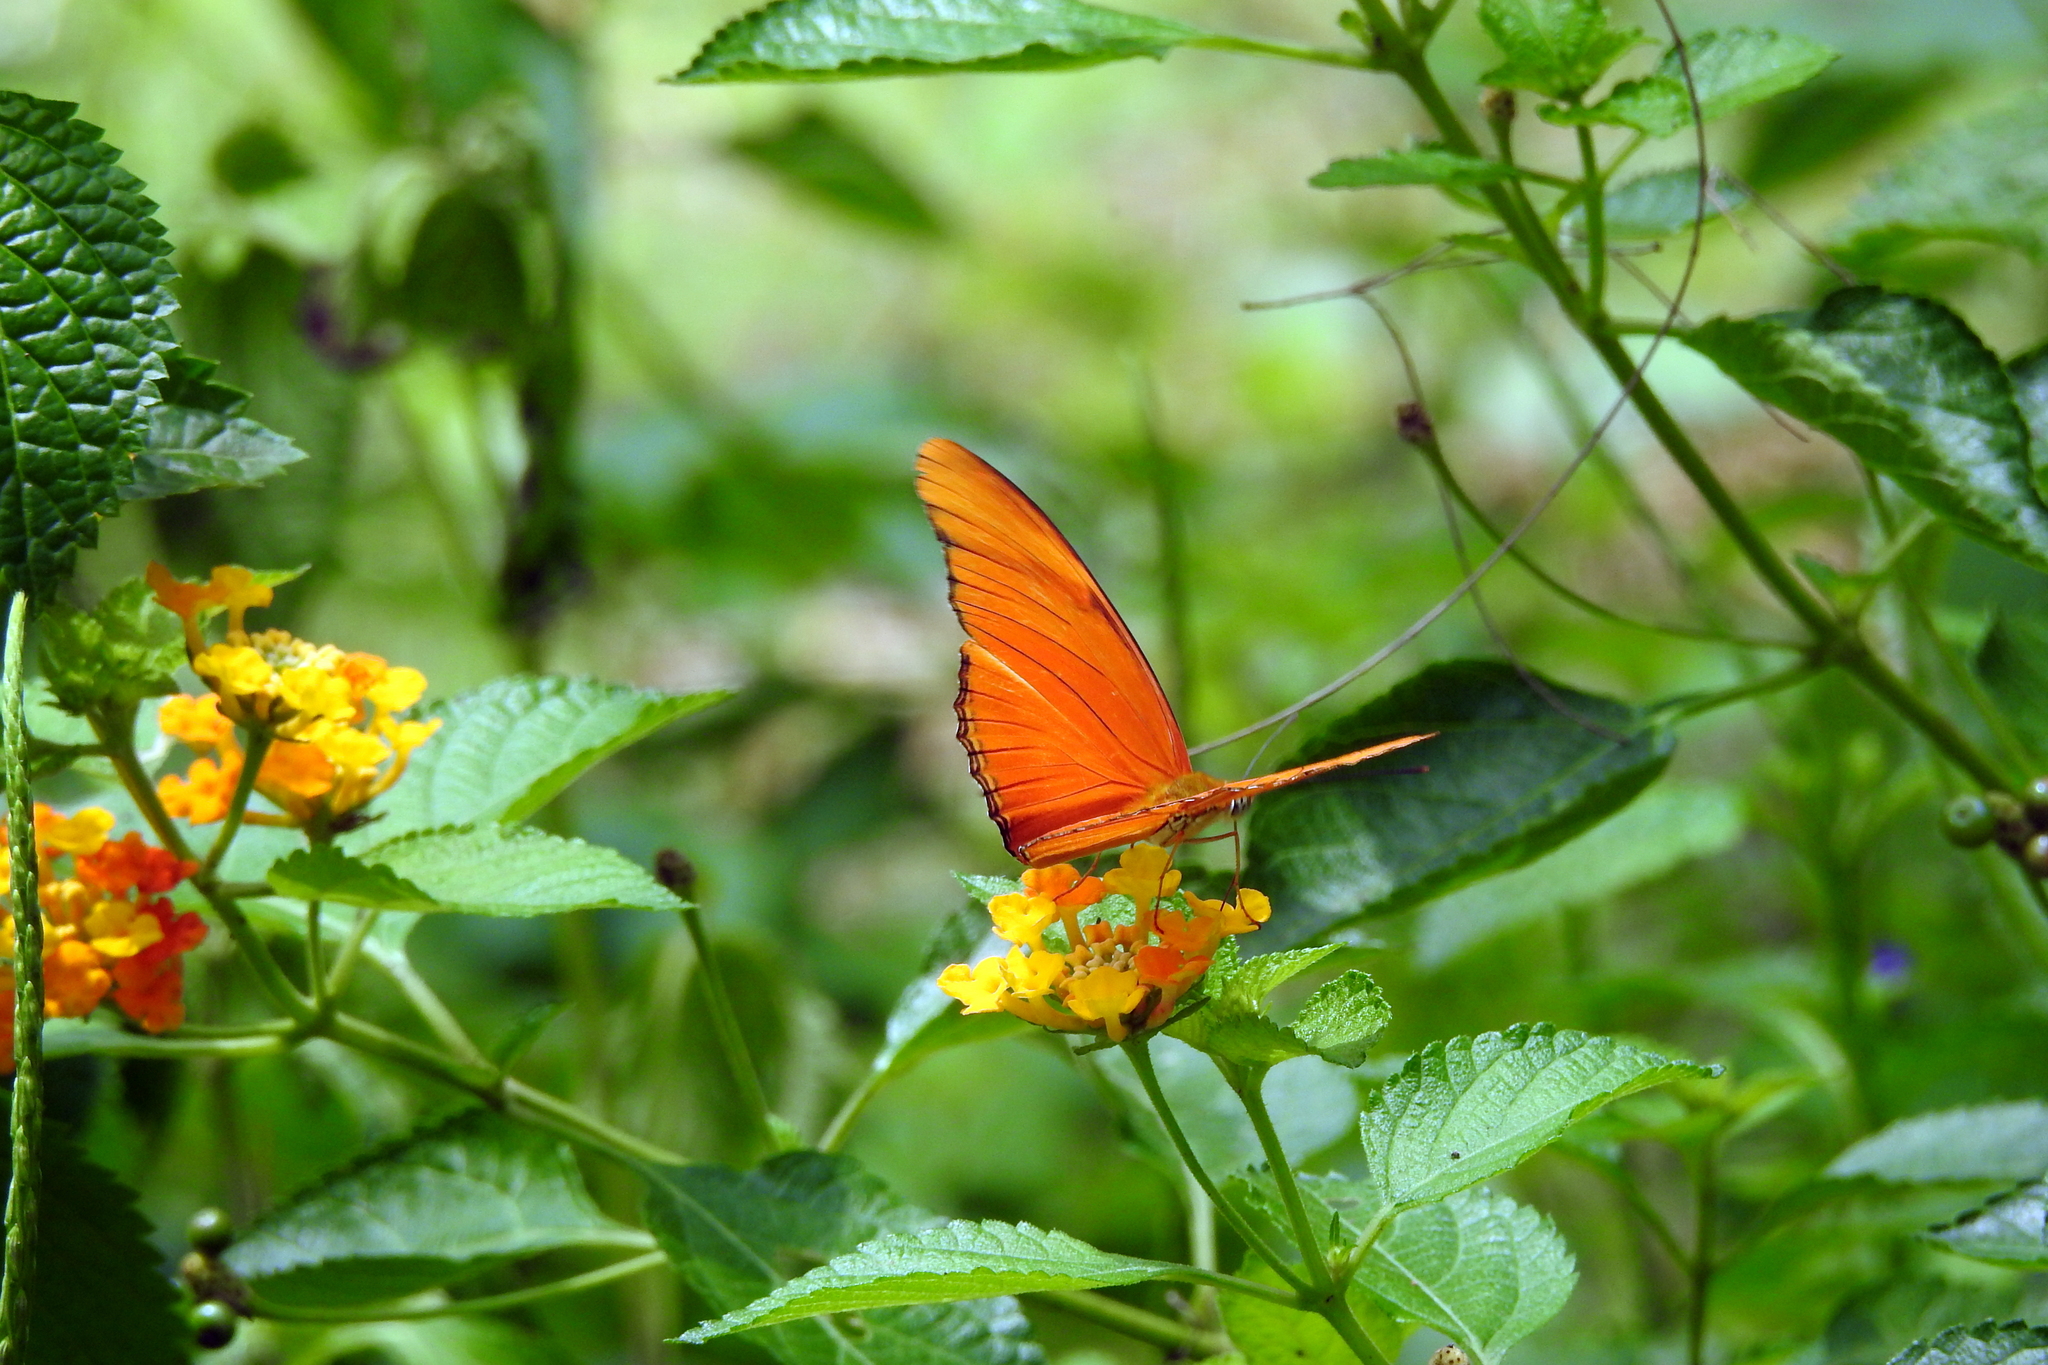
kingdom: Animalia
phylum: Arthropoda
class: Insecta
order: Lepidoptera
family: Nymphalidae
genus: Dryas
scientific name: Dryas iulia
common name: Flambeau
